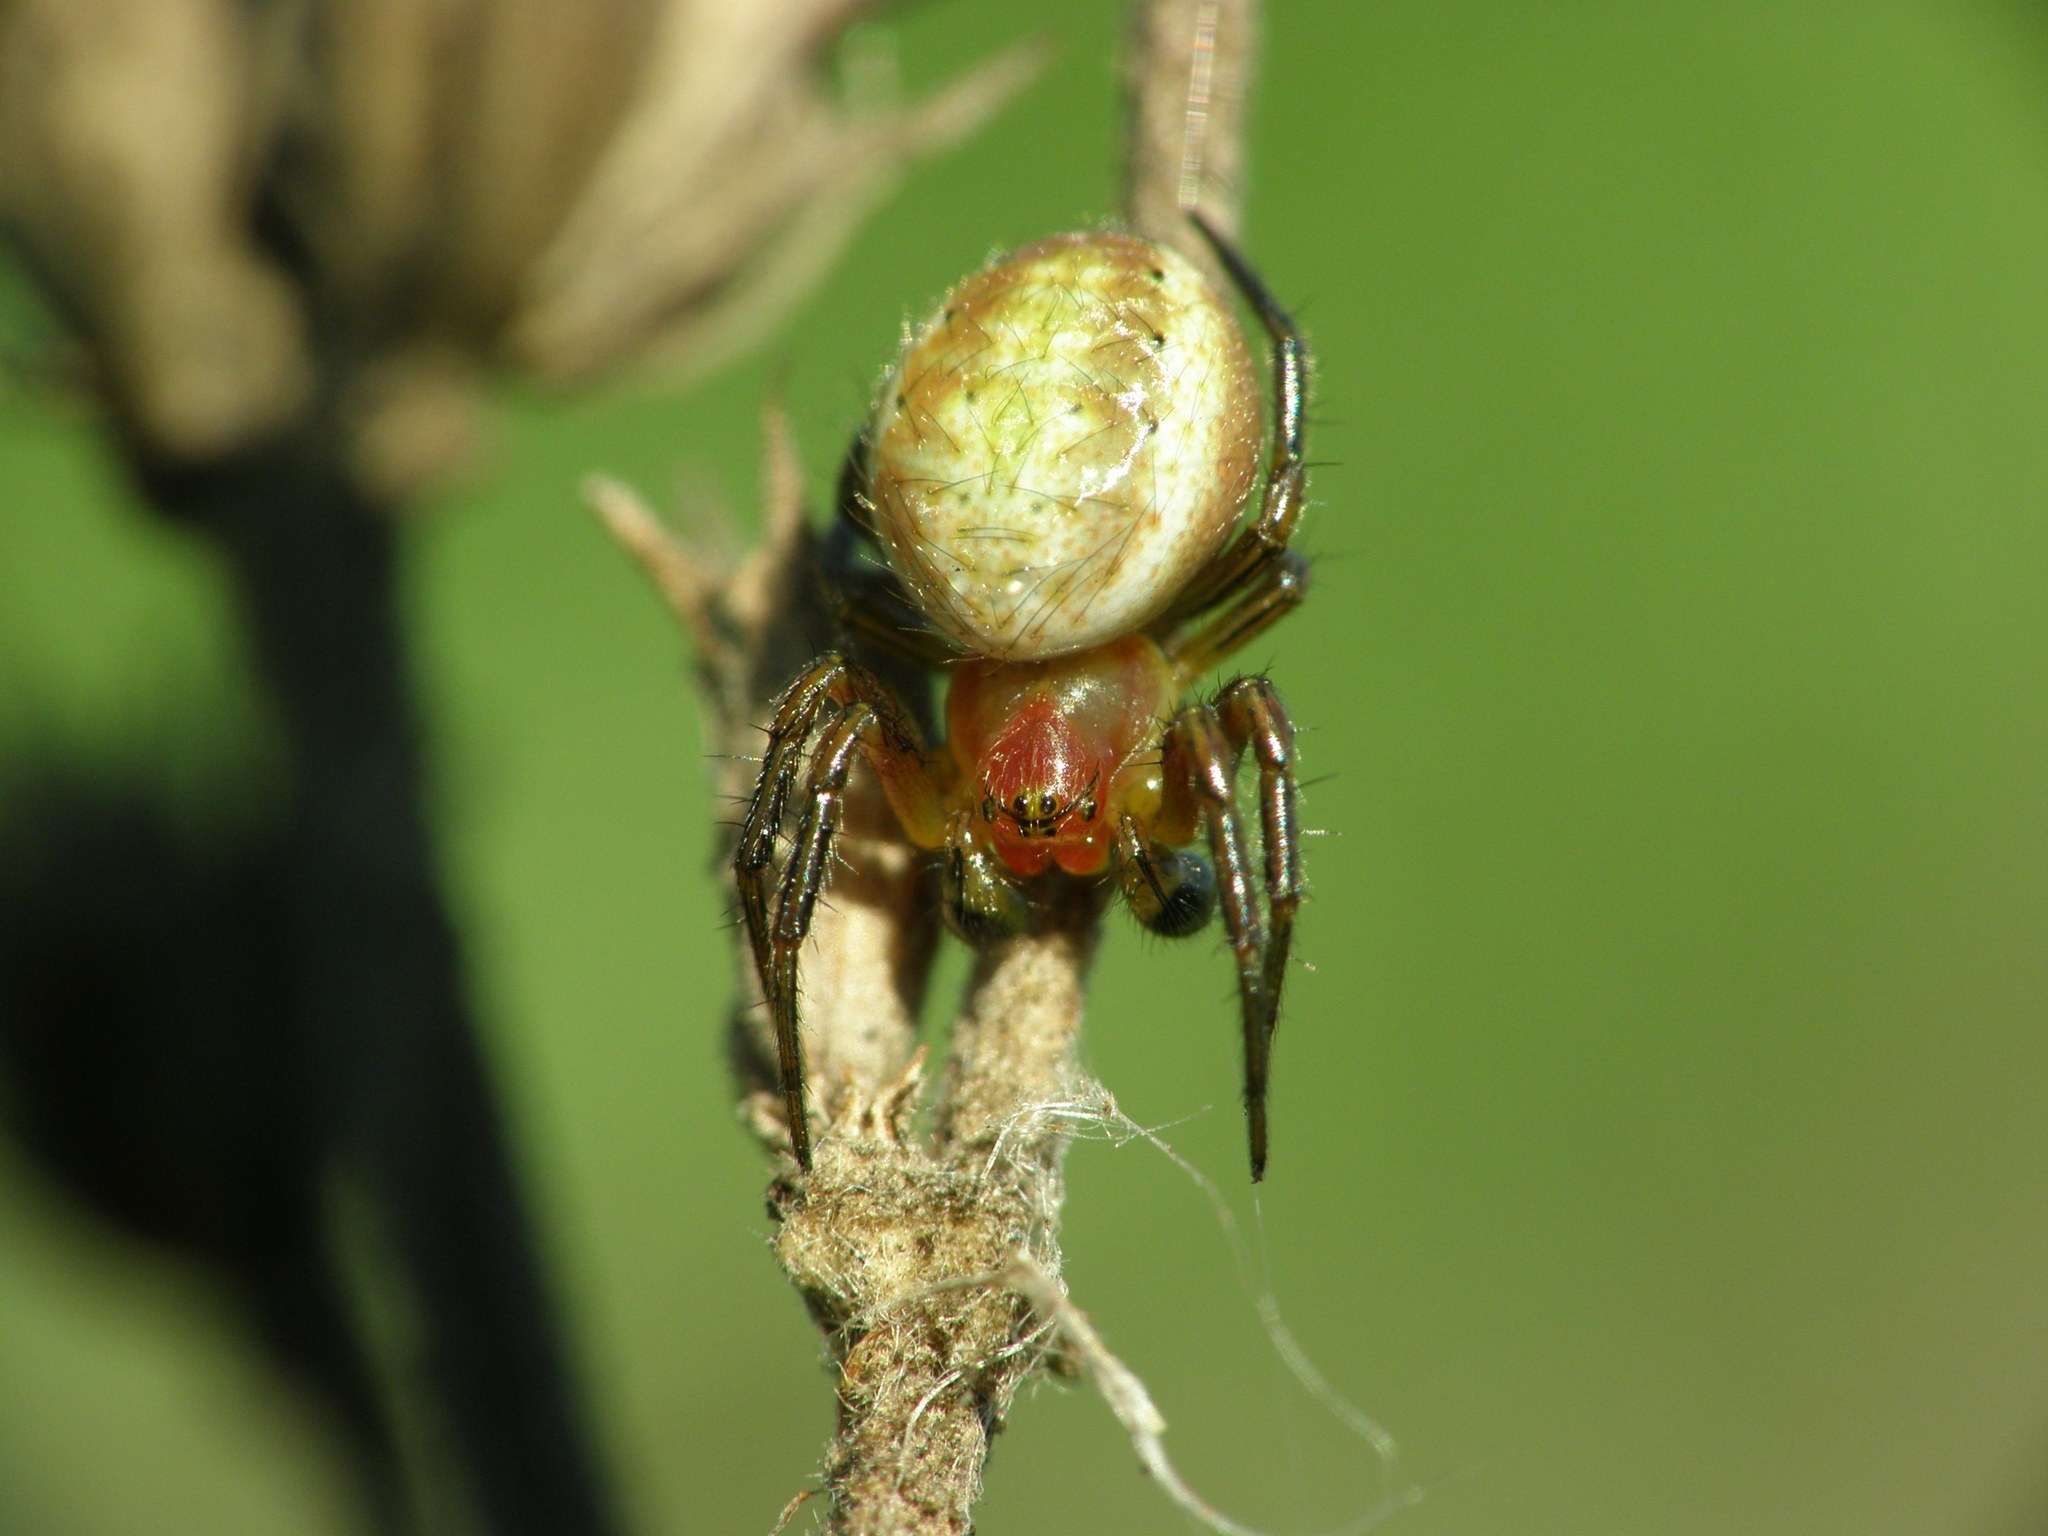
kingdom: Animalia
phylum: Arthropoda
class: Arachnida
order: Araneae
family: Araneidae
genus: Araniella
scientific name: Araniella displicata
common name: Sixspotted orb weaver
